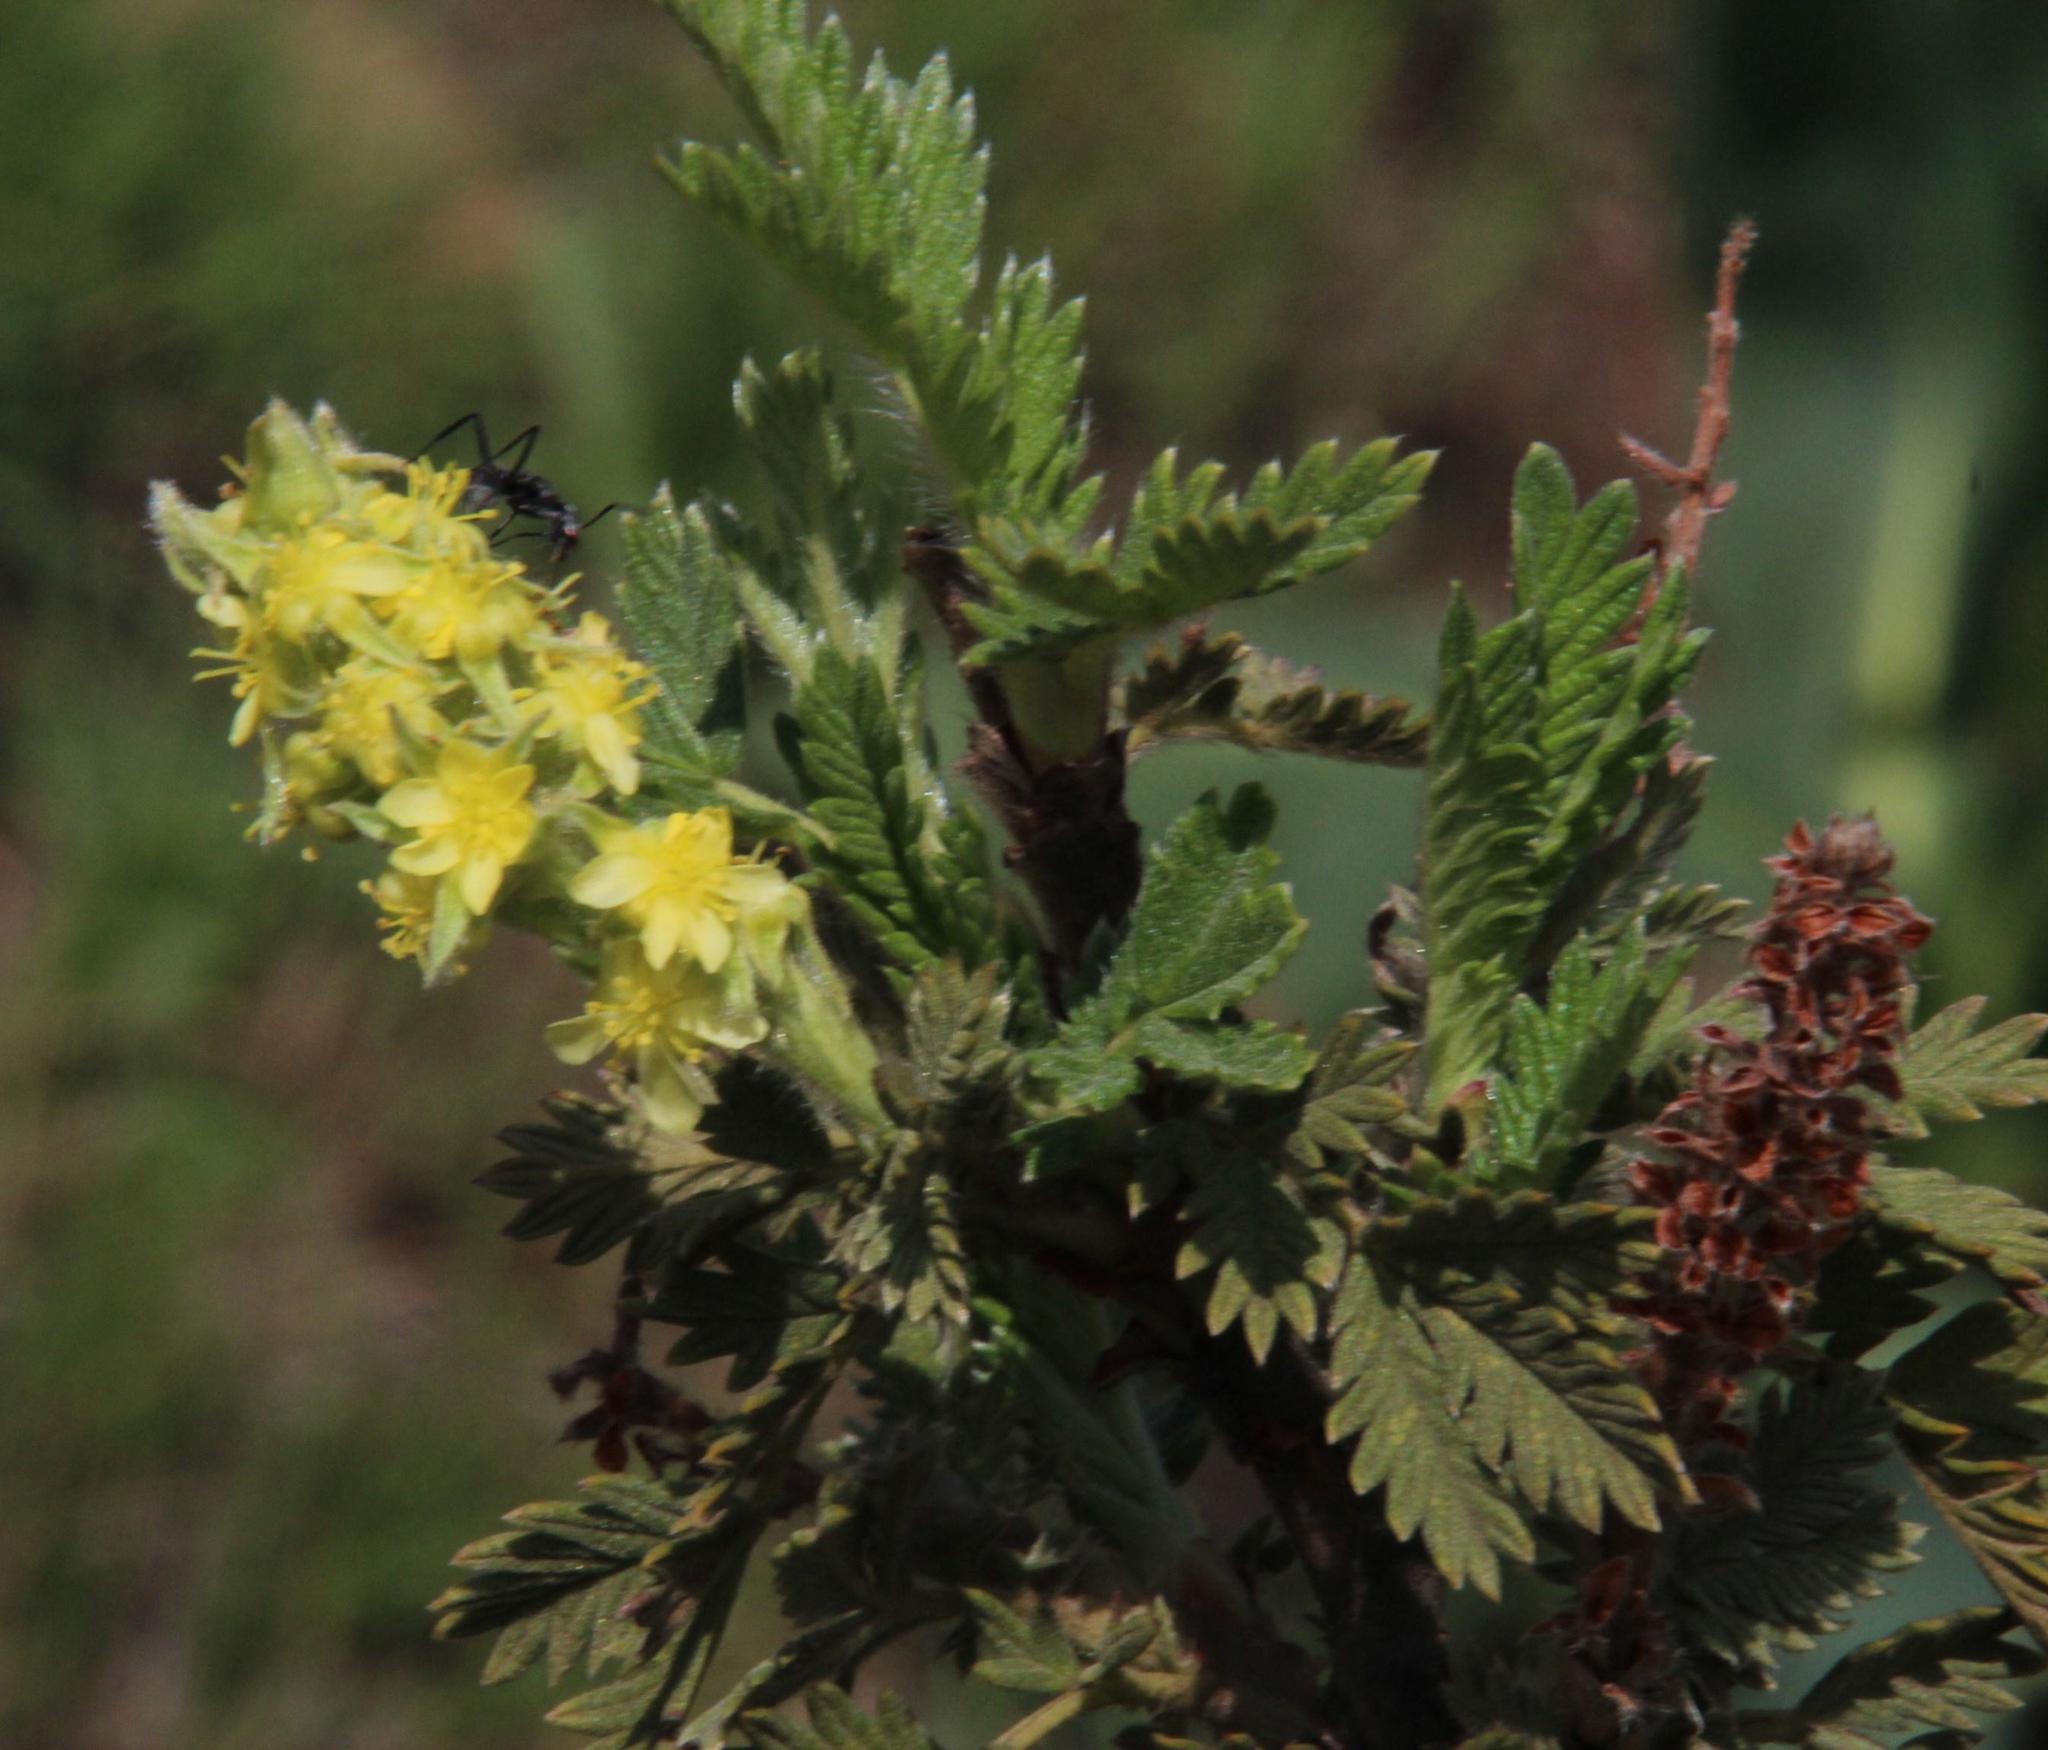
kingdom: Plantae
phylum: Tracheophyta
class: Magnoliopsida
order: Rosales
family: Rosaceae
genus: Leucosidea
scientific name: Leucosidea sericea
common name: Oldwood
